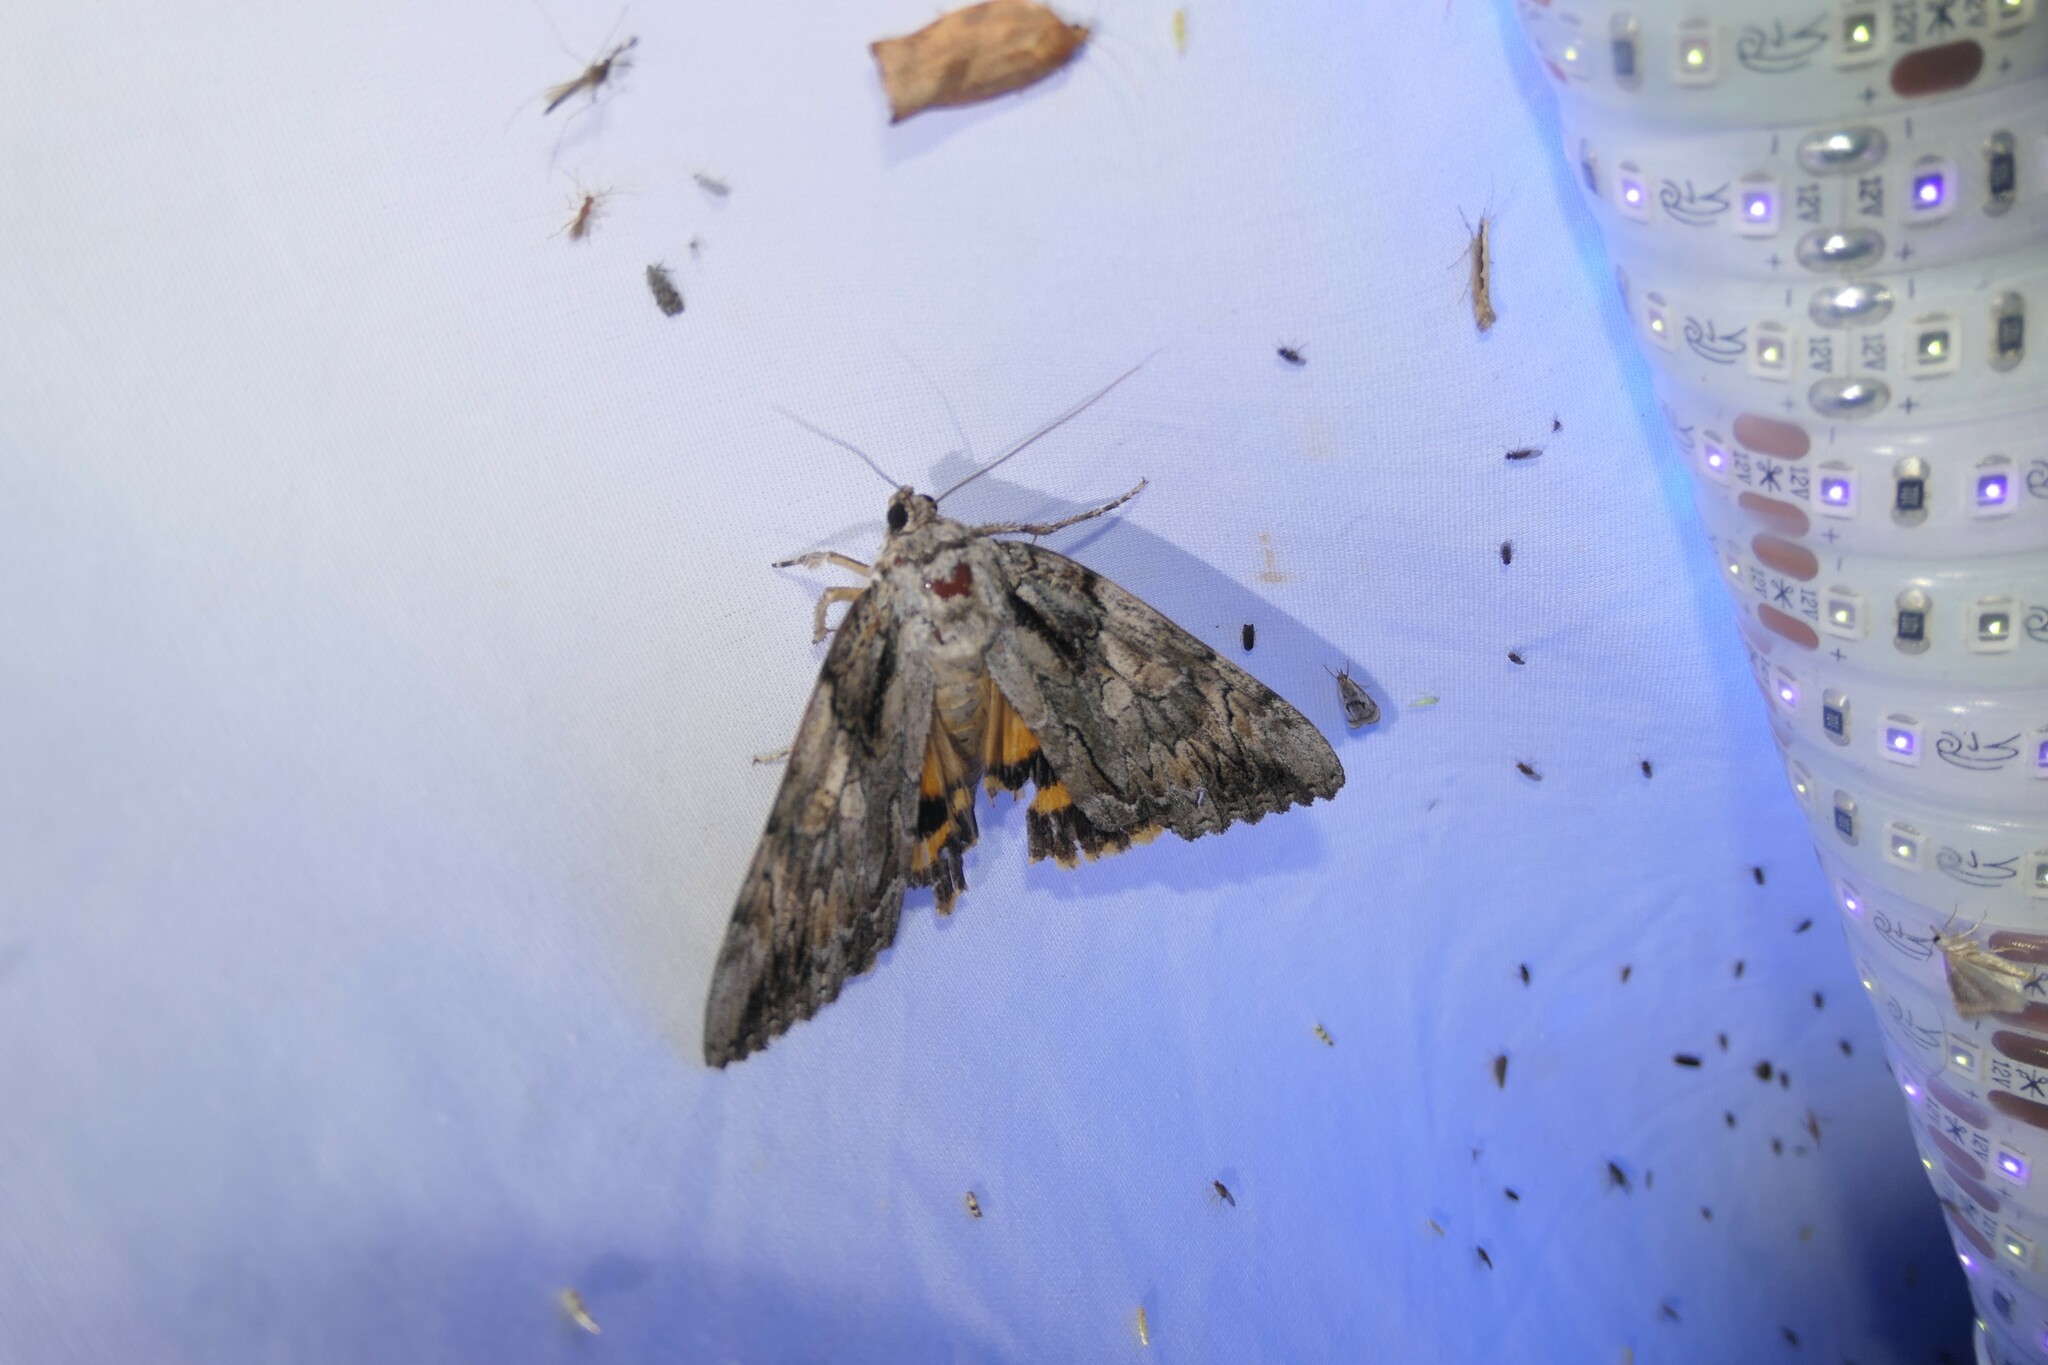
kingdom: Animalia
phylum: Arthropoda
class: Insecta
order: Lepidoptera
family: Erebidae
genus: Catocala
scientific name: Catocala neogama
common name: Bride underwing
